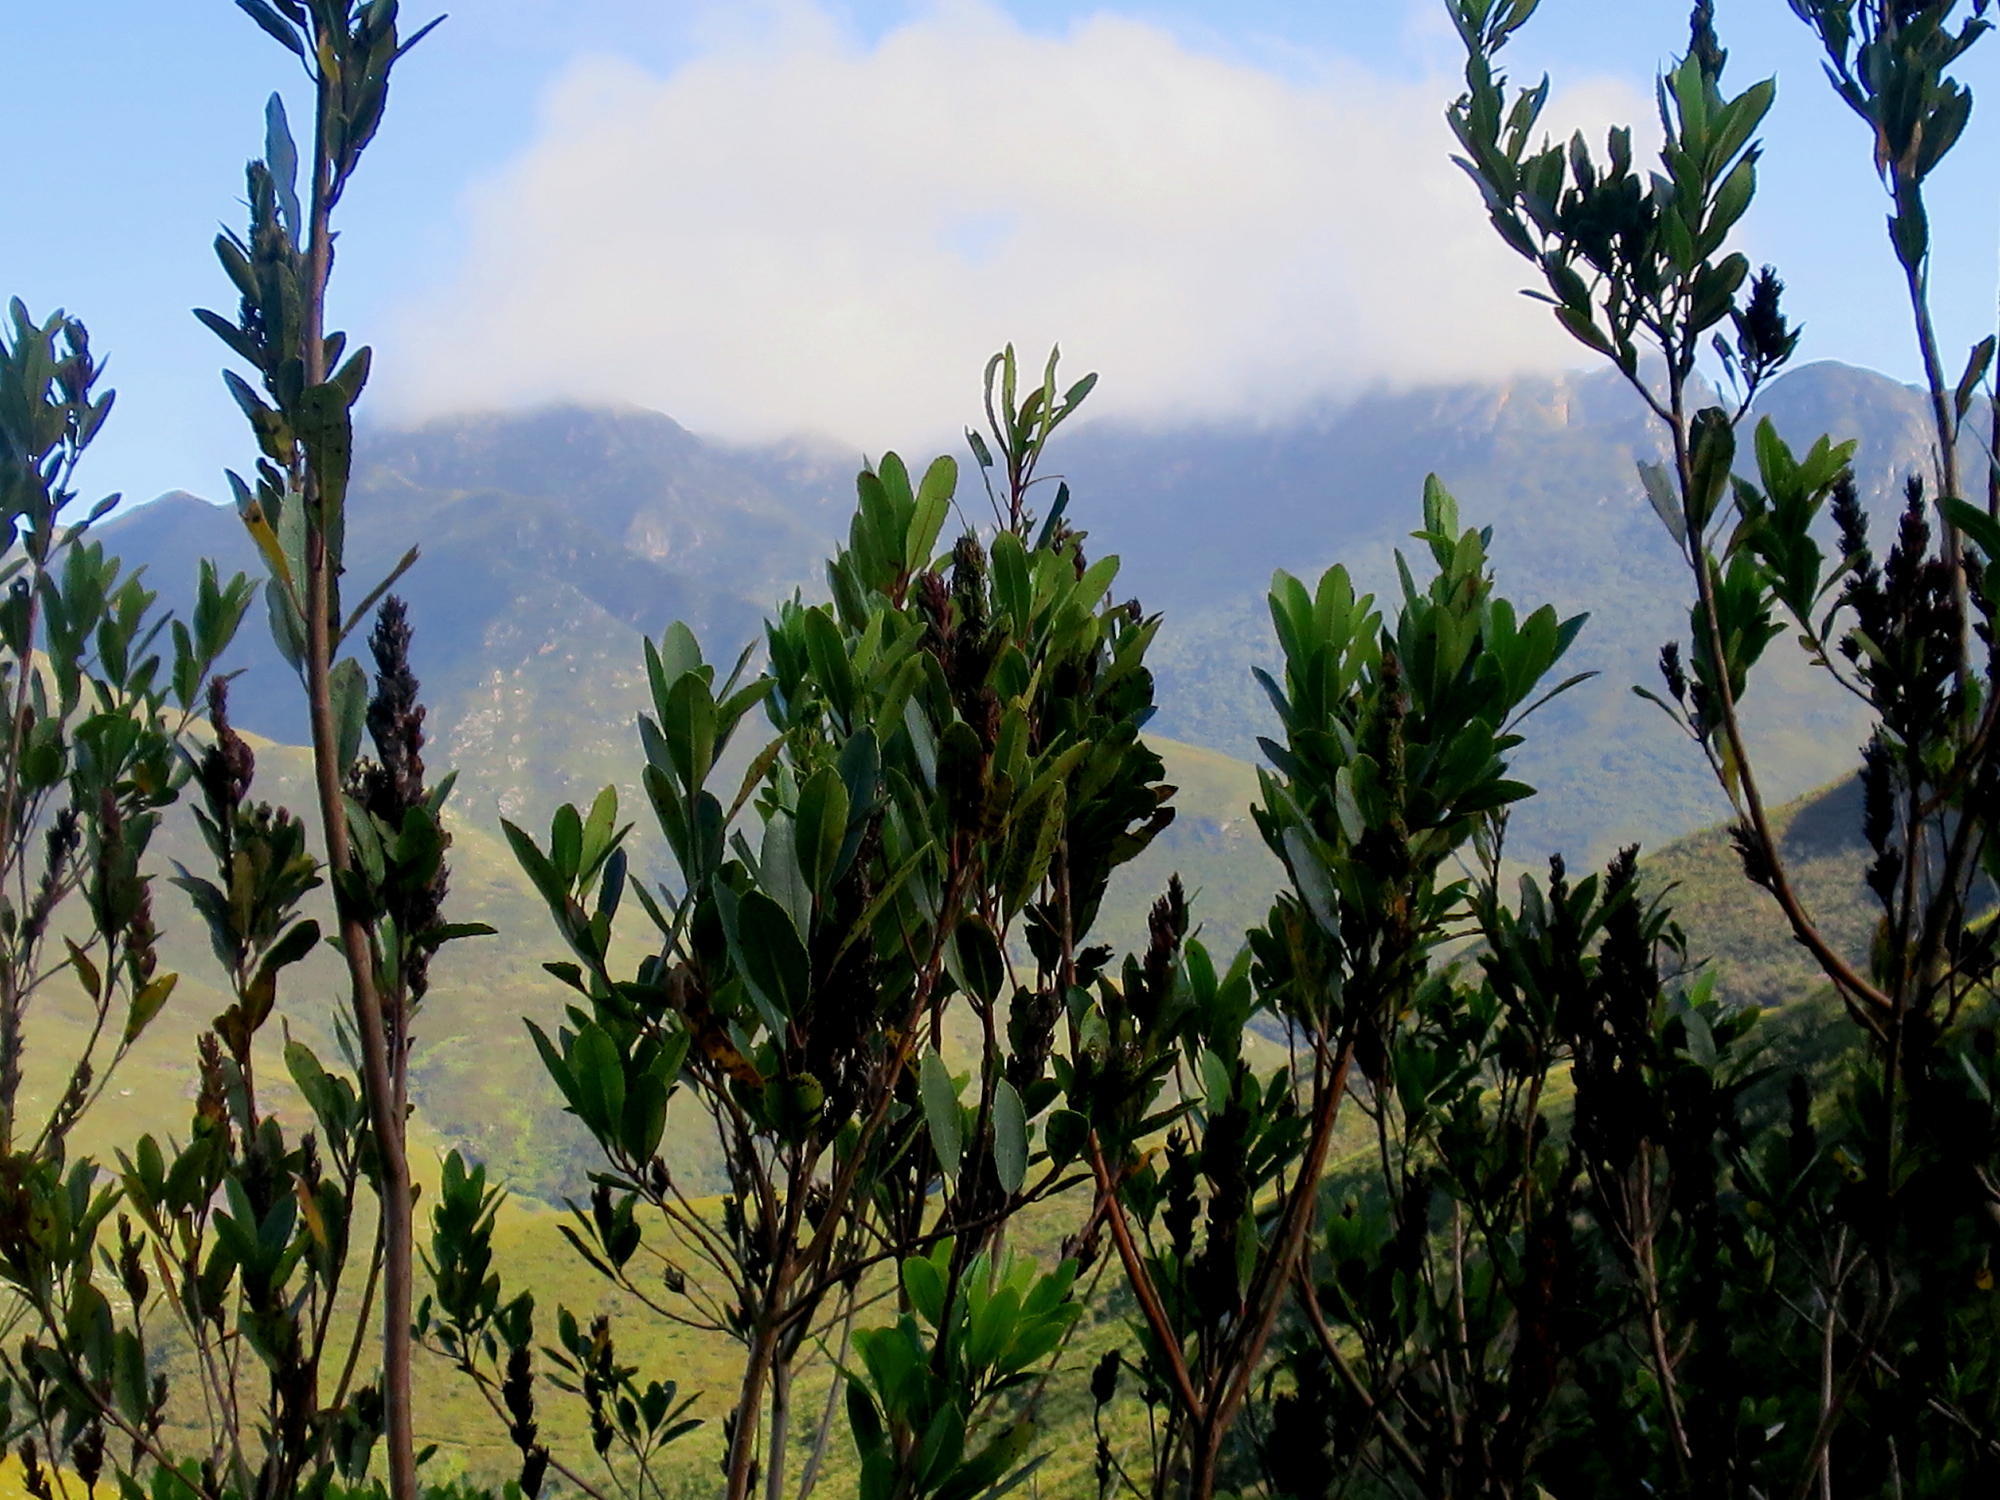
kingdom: Plantae
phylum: Tracheophyta
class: Magnoliopsida
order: Sapindales
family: Anacardiaceae
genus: Laurophyllus
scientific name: Laurophyllus capensis
